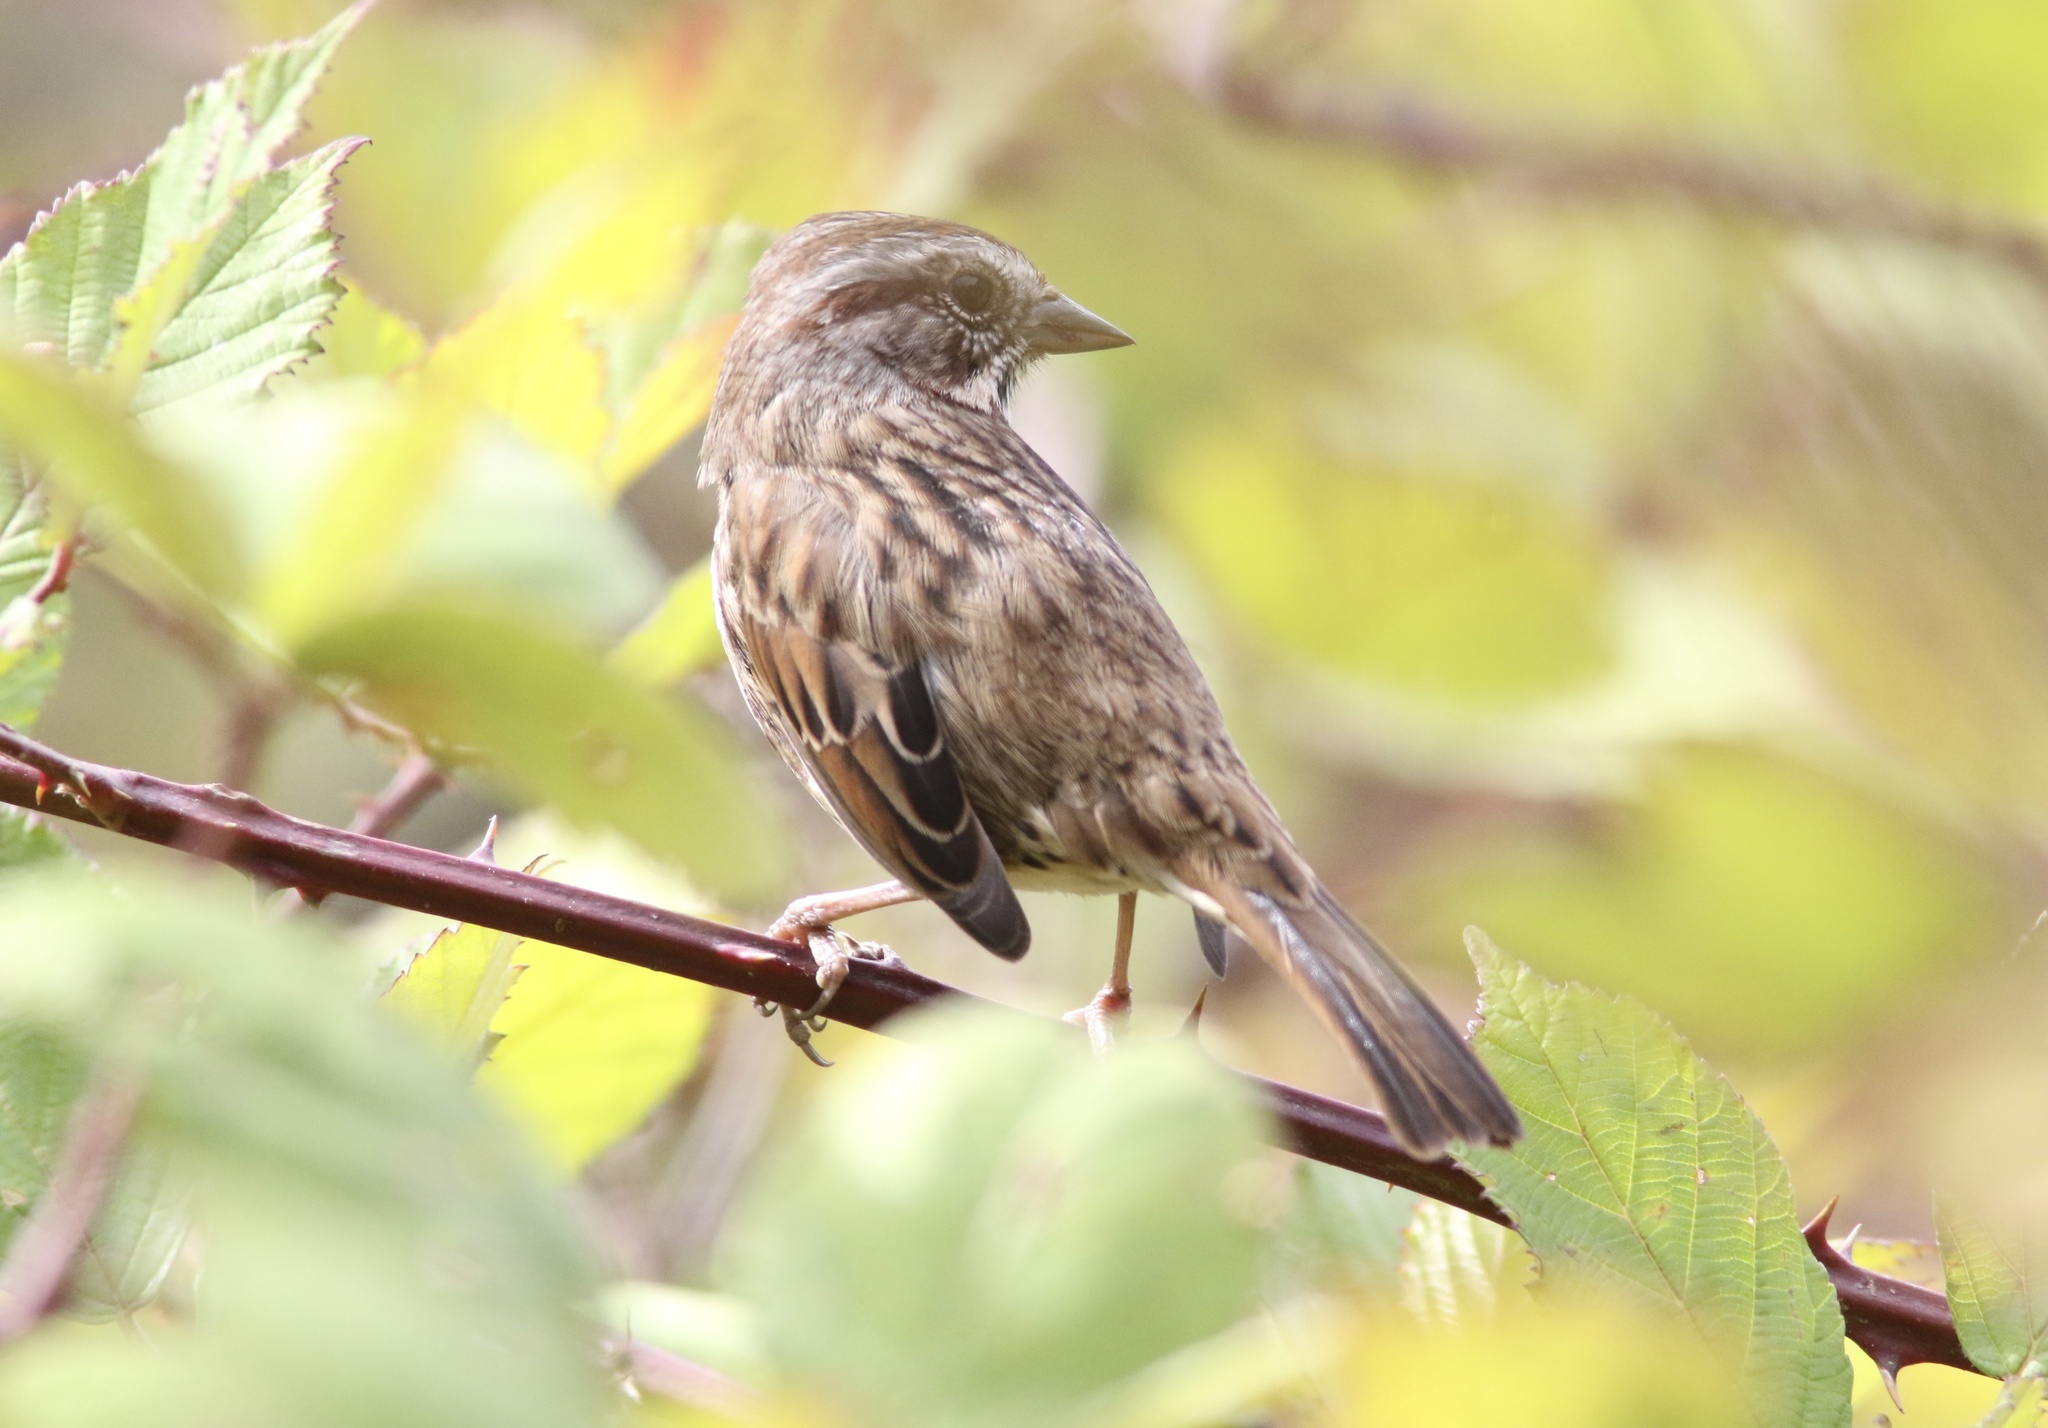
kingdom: Animalia
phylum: Chordata
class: Aves
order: Passeriformes
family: Passerellidae
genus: Melospiza
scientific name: Melospiza melodia
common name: Song sparrow
